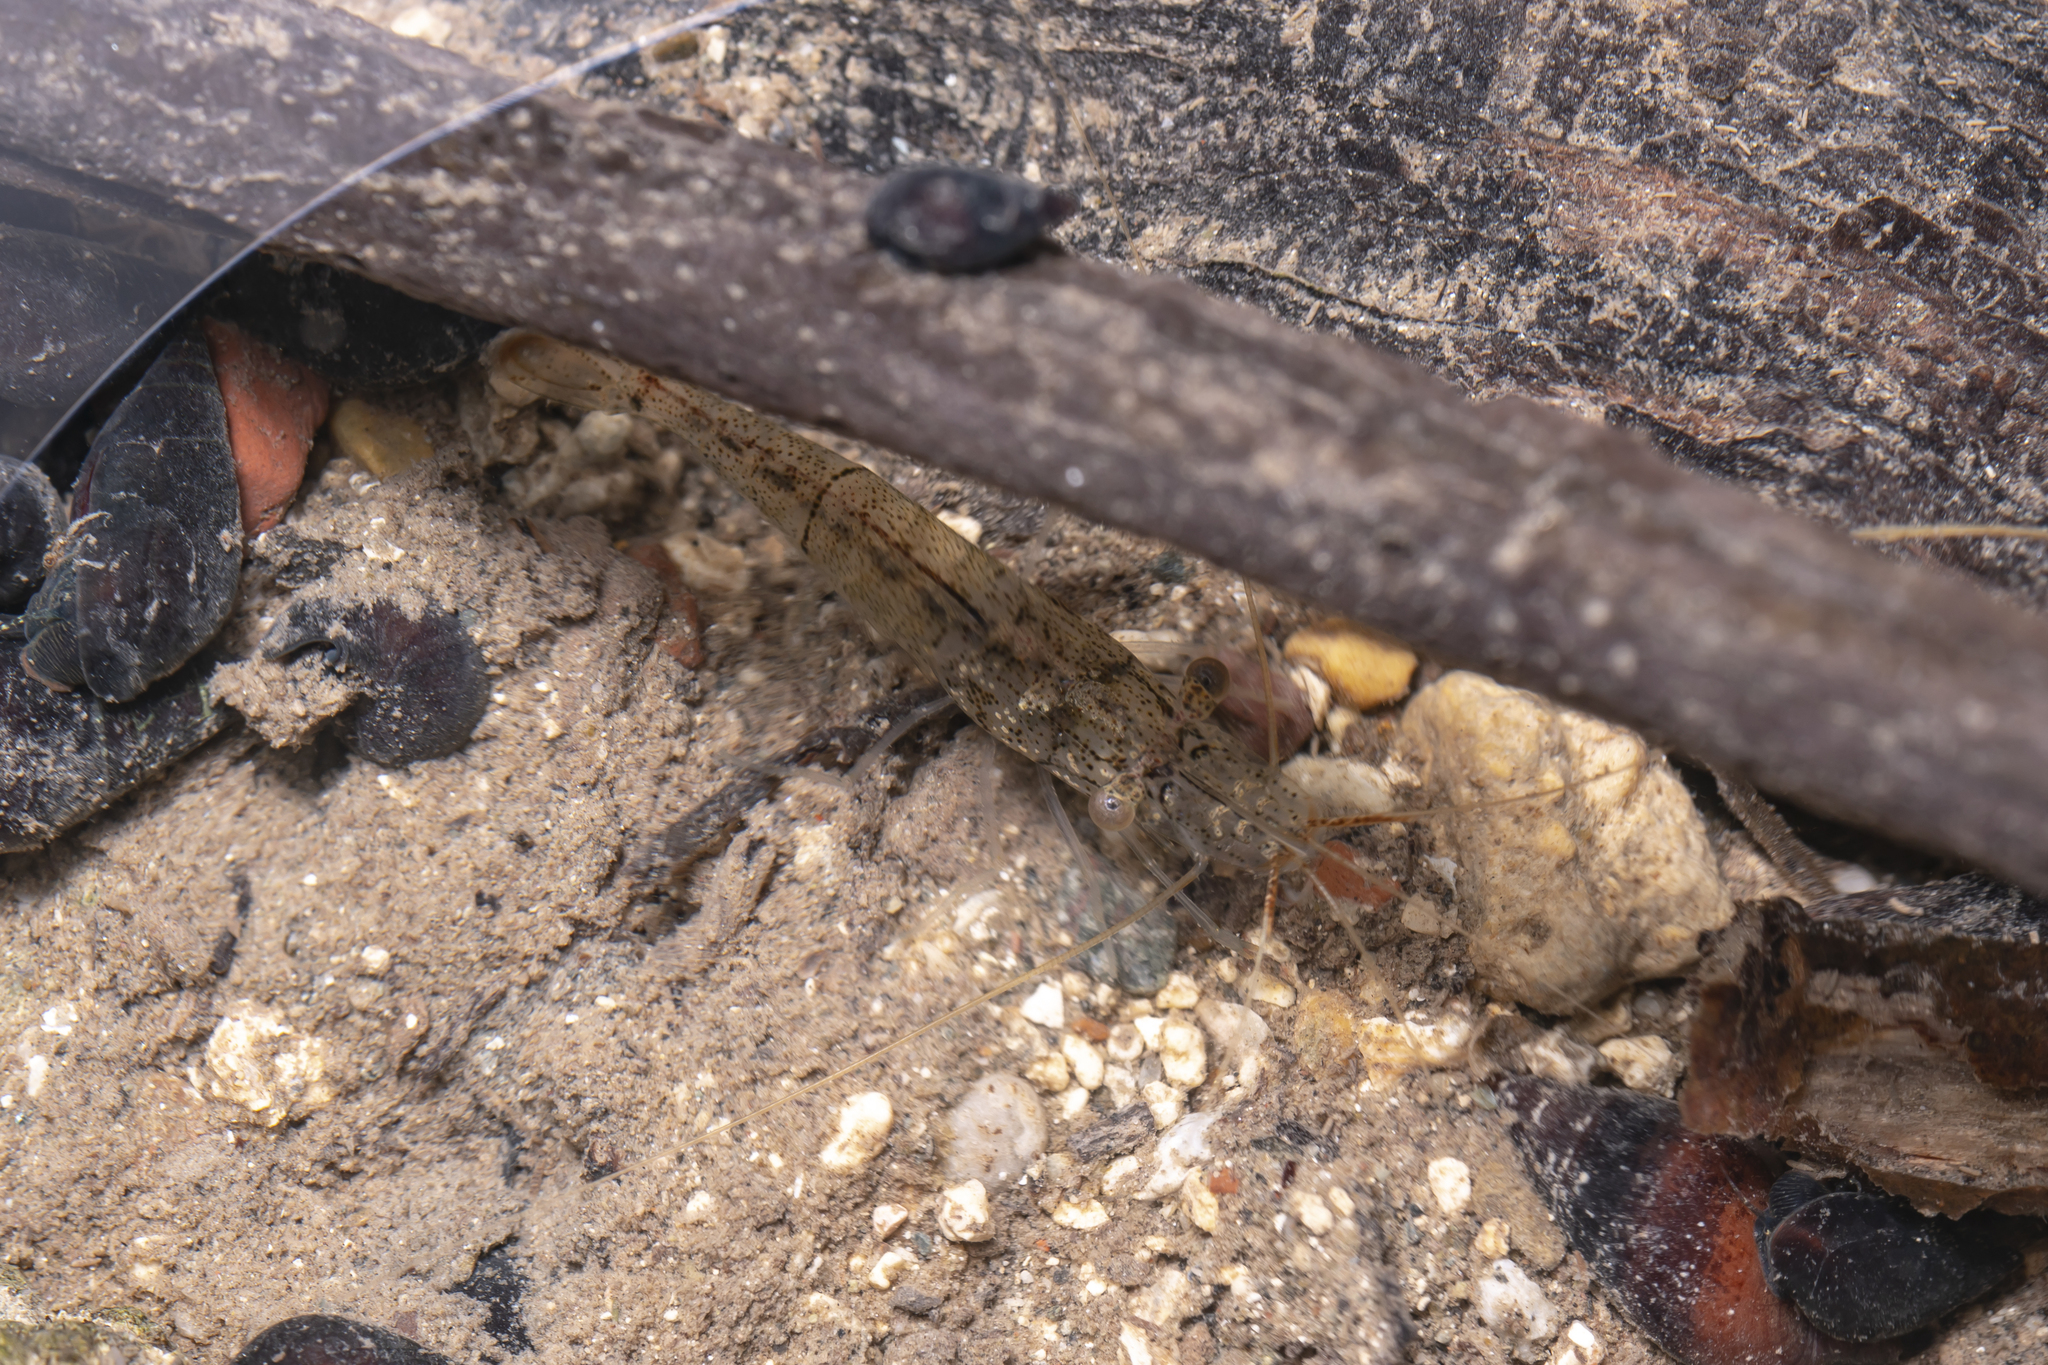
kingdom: Animalia
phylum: Arthropoda
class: Malacostraca
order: Decapoda
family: Palaemonidae
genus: Palaemon
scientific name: Palaemon colossus
